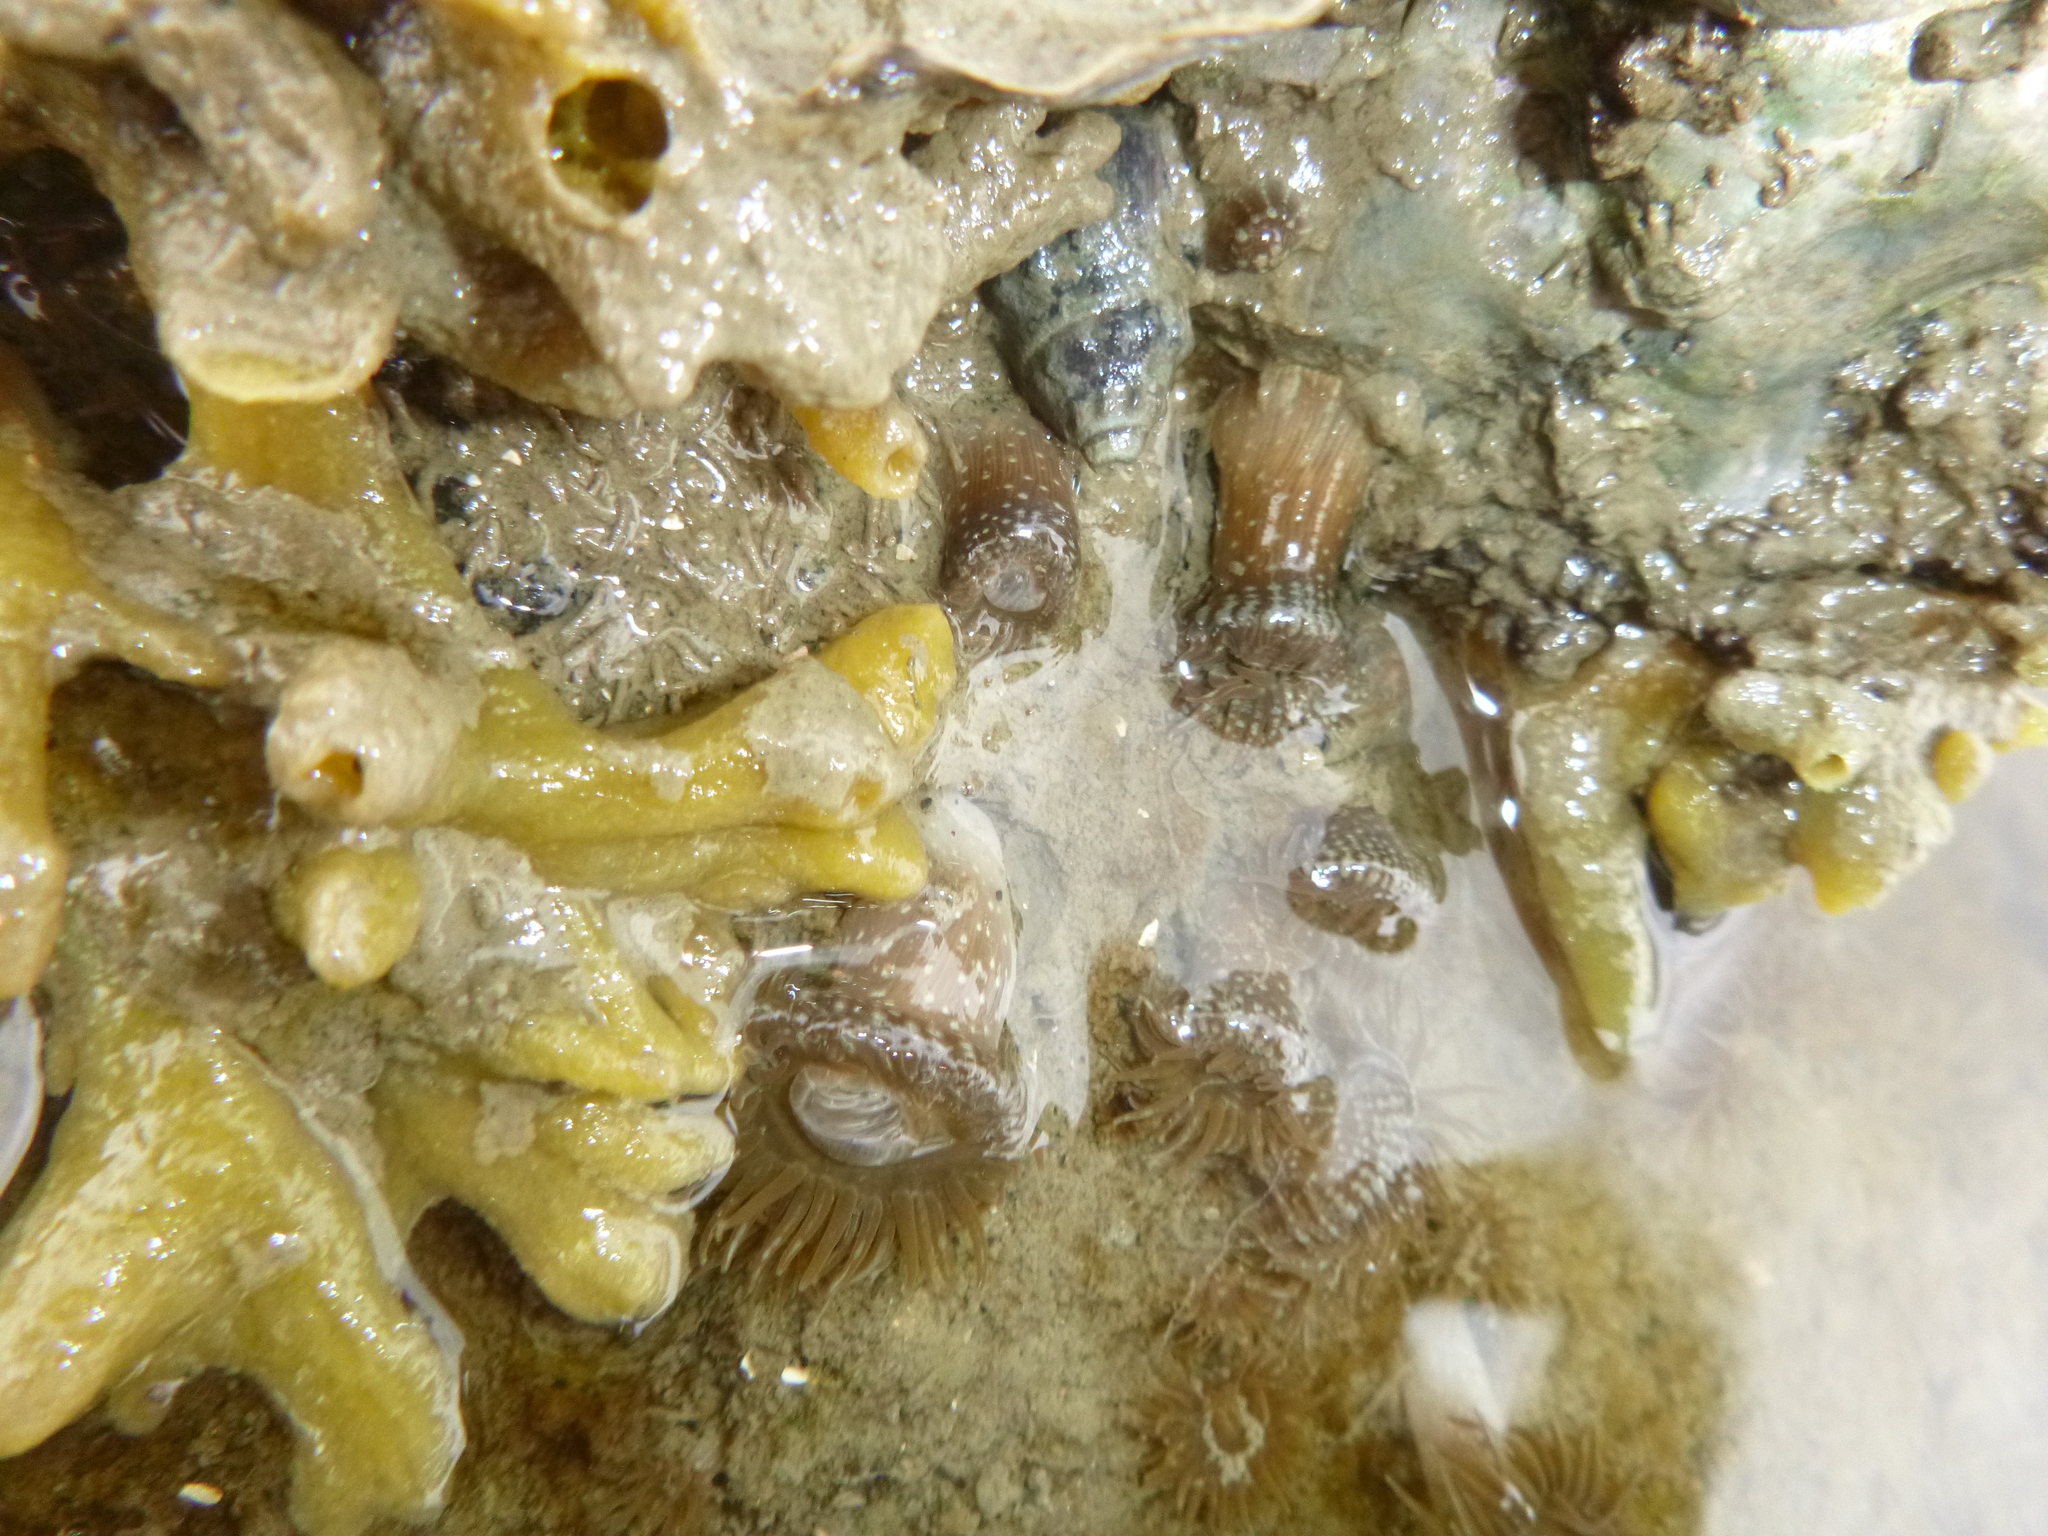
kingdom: Animalia
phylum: Cnidaria
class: Anthozoa
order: Actiniaria
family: Actiniidae
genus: Anthopleura
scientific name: Anthopleura hermaphroditica
